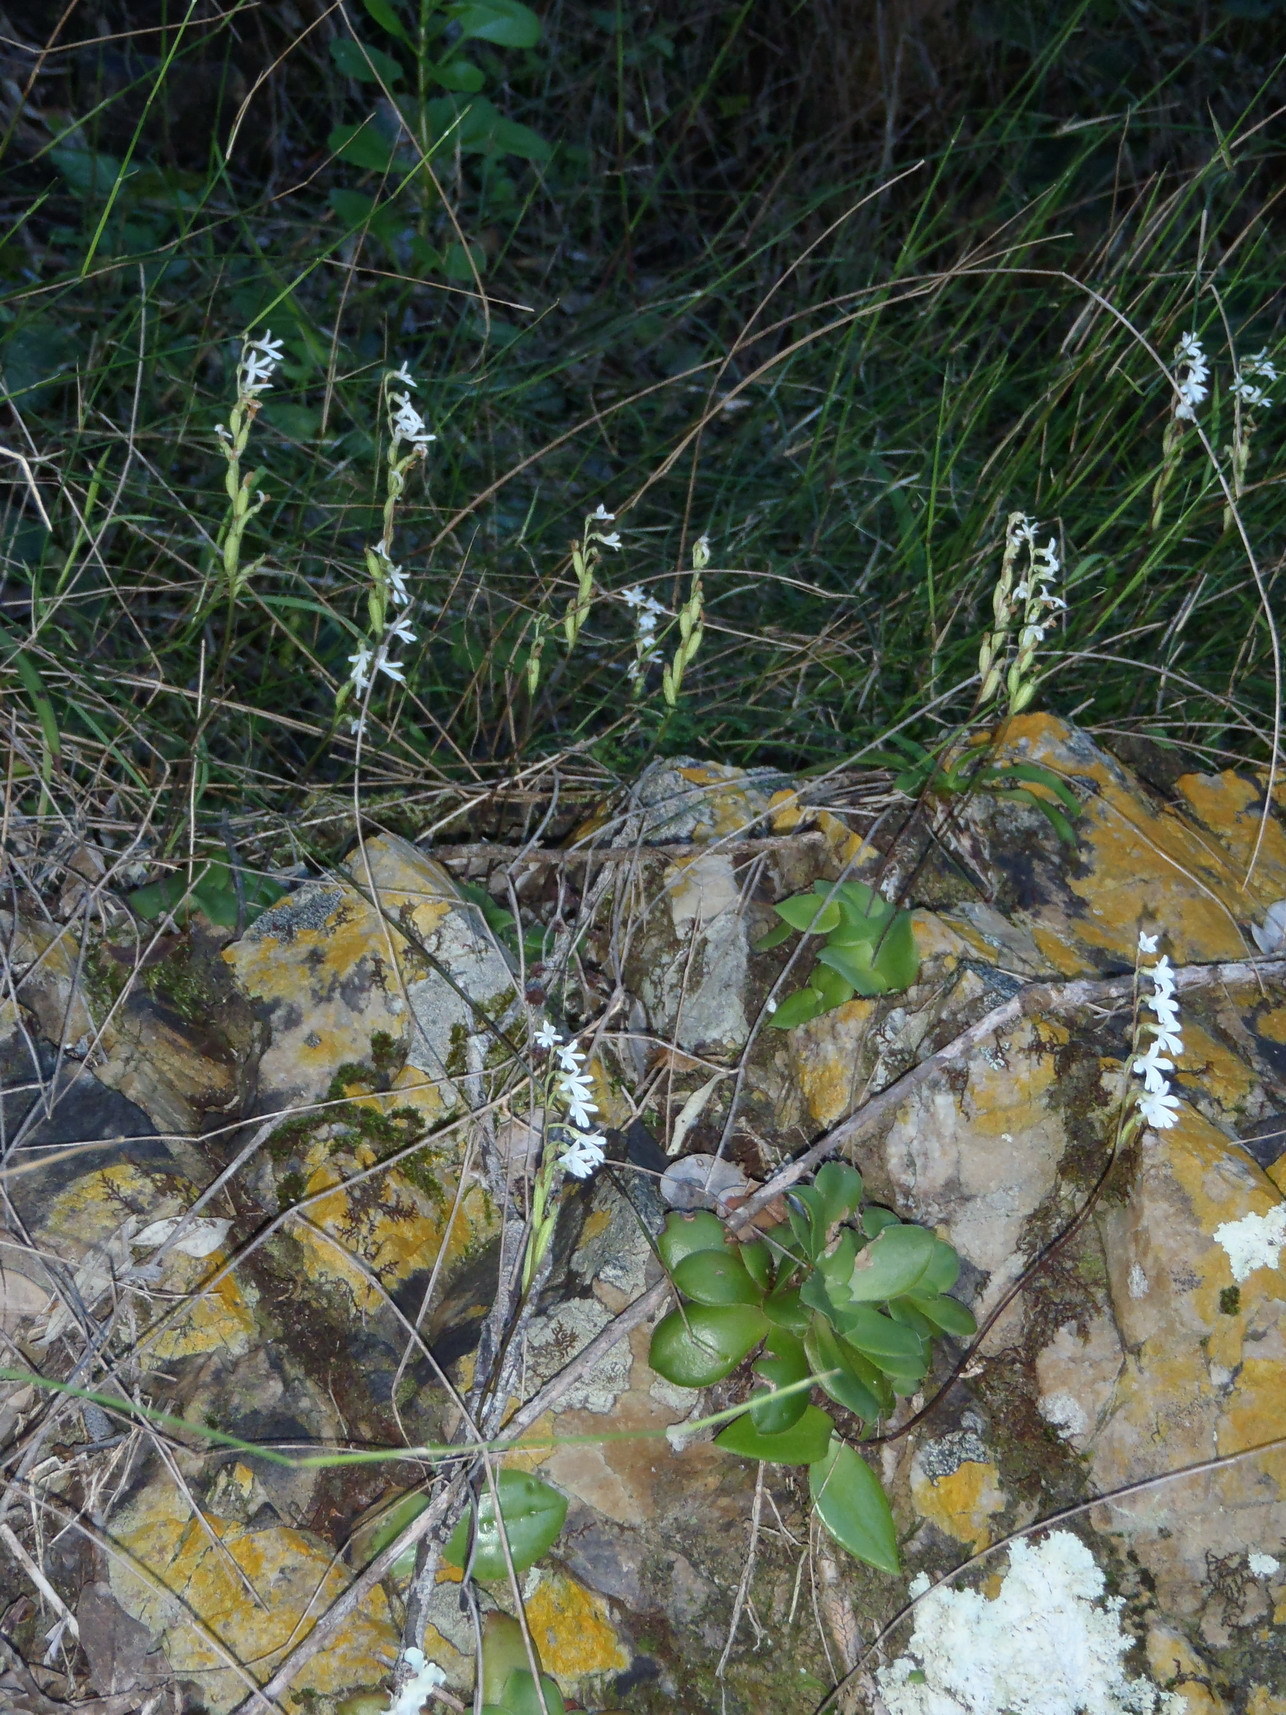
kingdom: Plantae
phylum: Tracheophyta
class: Liliopsida
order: Asparagales
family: Orchidaceae
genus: Holothrix
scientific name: Holothrix parviflora
